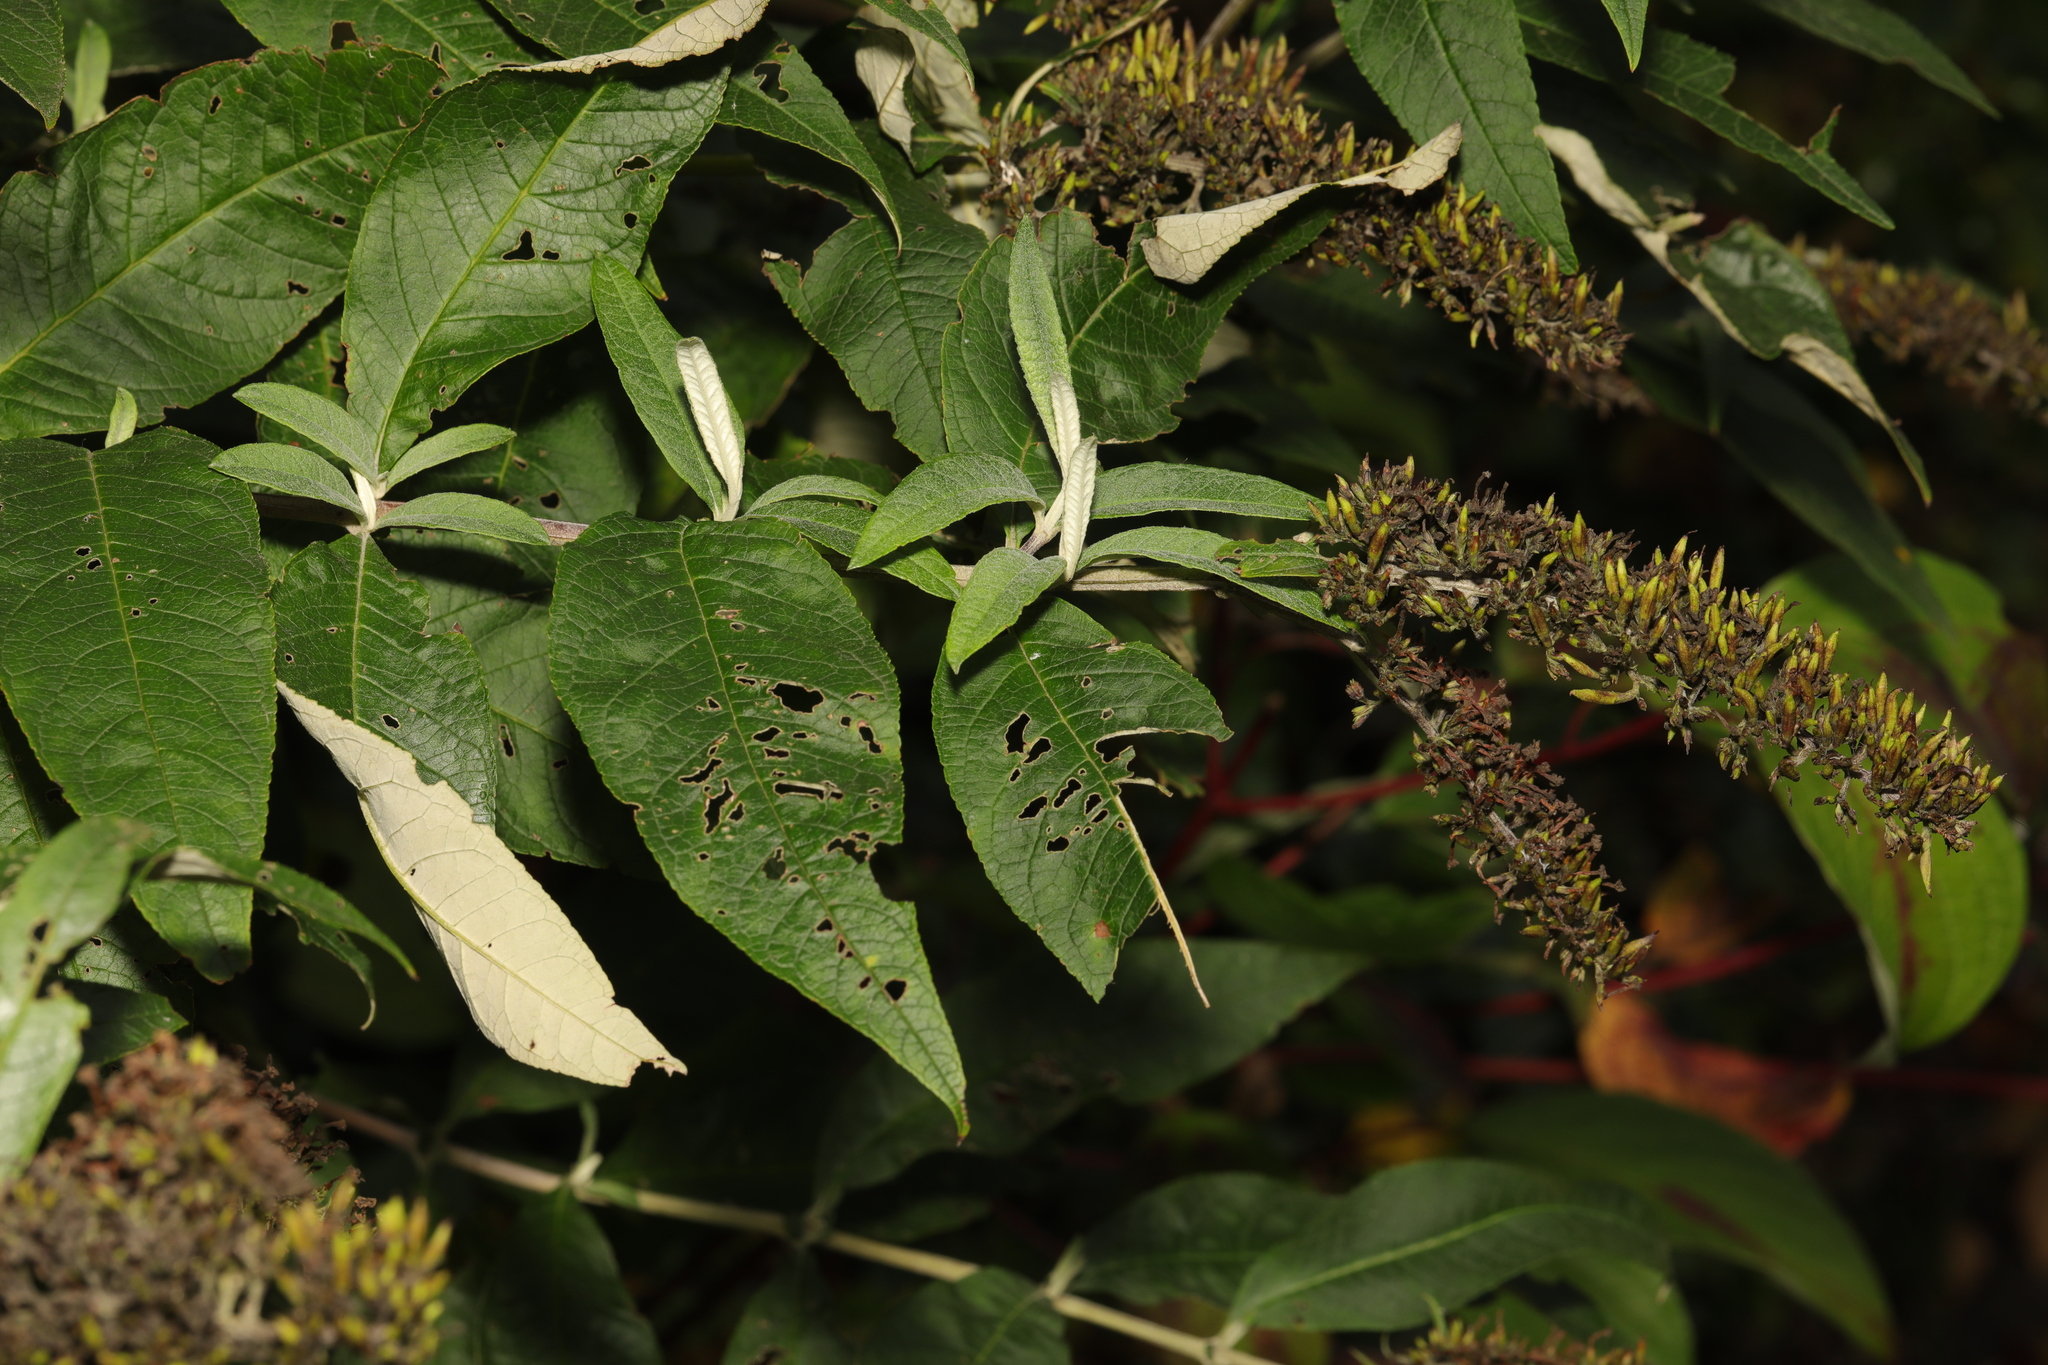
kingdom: Plantae
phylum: Tracheophyta
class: Magnoliopsida
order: Lamiales
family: Scrophulariaceae
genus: Buddleja
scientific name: Buddleja davidii
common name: Butterfly-bush
